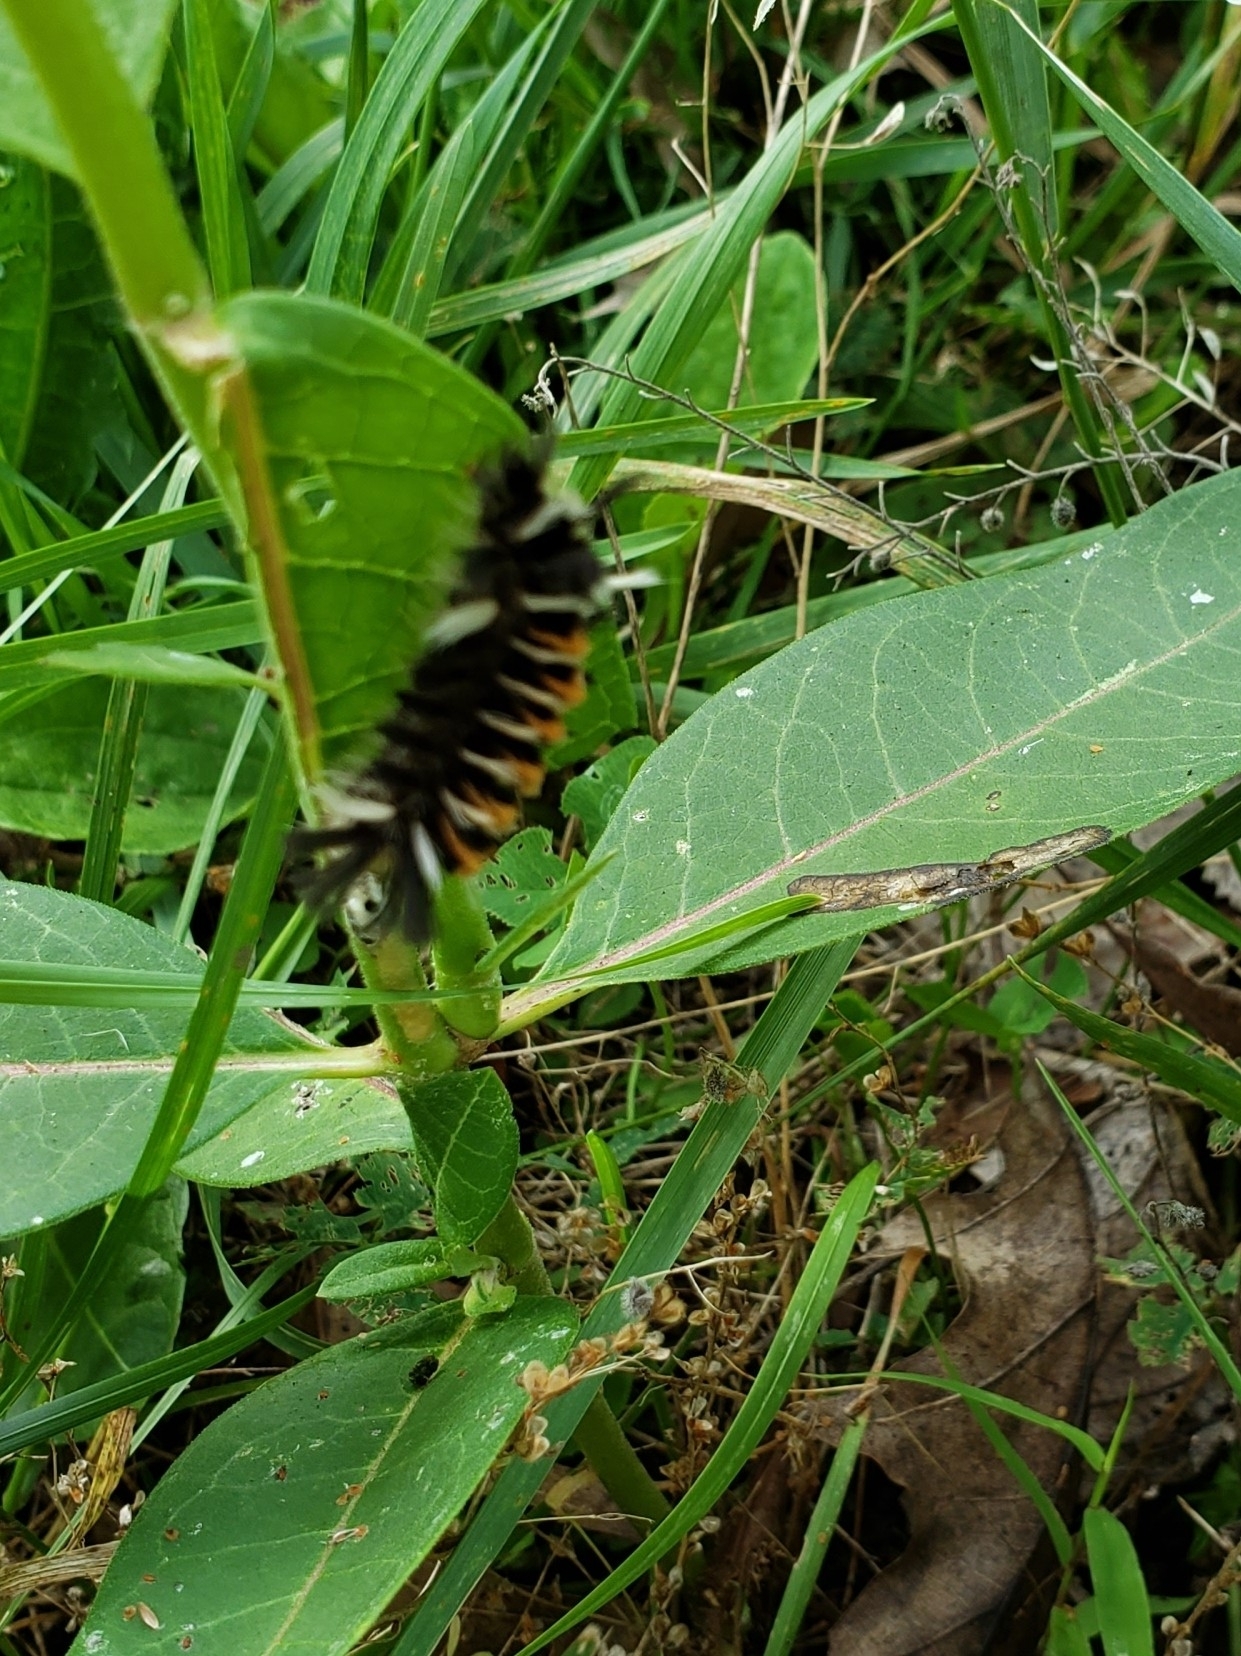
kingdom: Animalia
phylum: Arthropoda
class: Insecta
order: Lepidoptera
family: Erebidae
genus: Euchaetes
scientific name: Euchaetes egle
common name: Milkweed tussock moth
